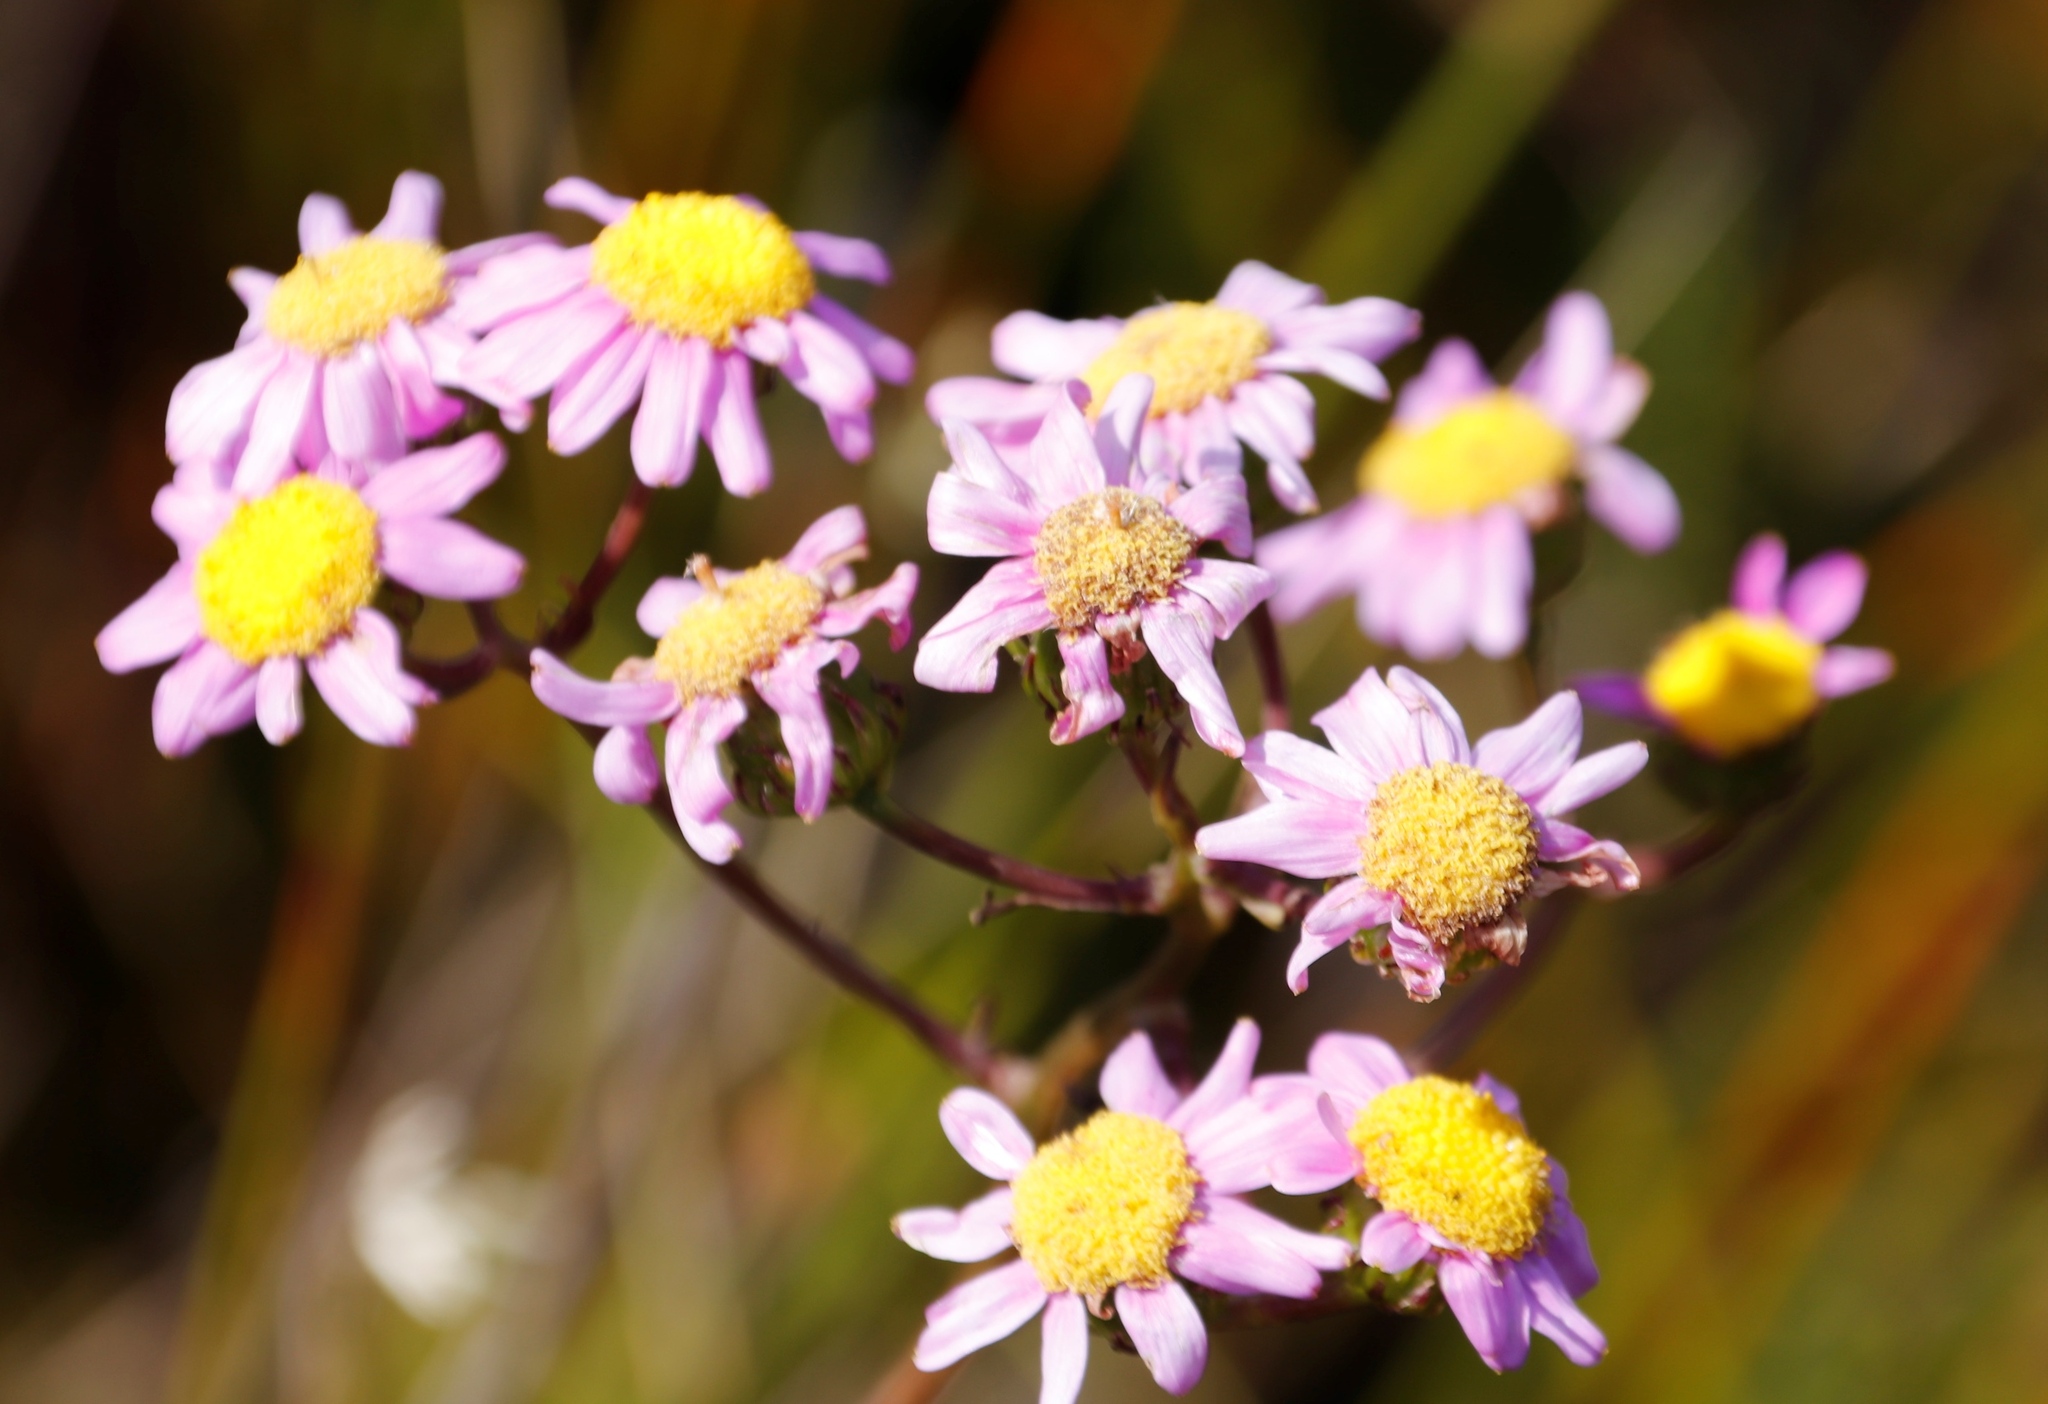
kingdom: Plantae
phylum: Tracheophyta
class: Magnoliopsida
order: Asterales
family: Asteraceae
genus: Senecio
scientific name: Senecio umbellatus
